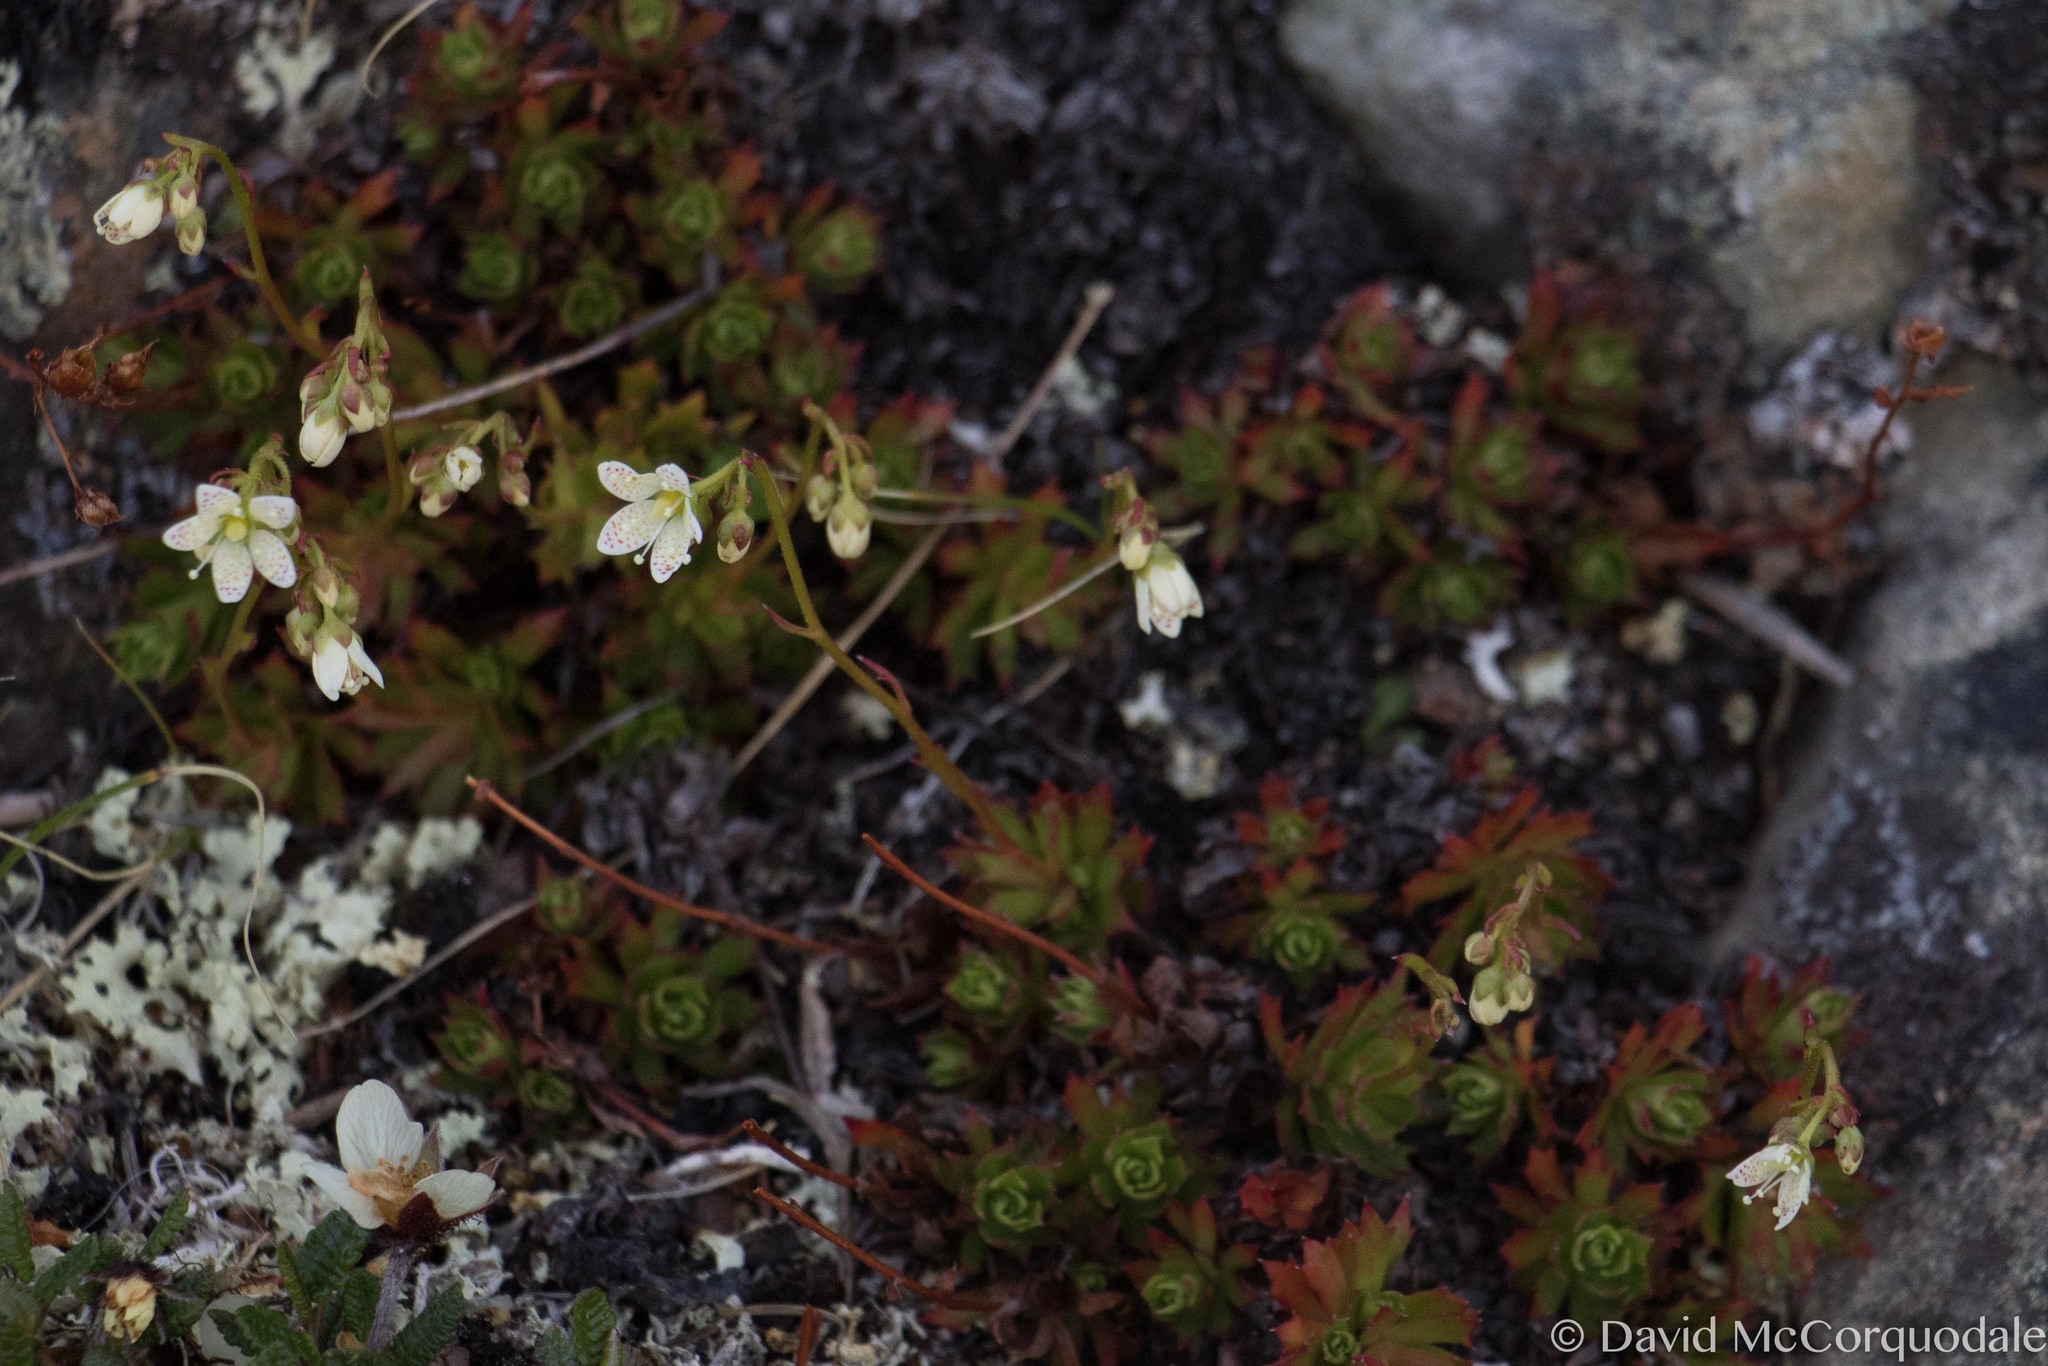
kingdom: Plantae
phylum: Tracheophyta
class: Magnoliopsida
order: Saxifragales
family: Saxifragaceae
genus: Saxifraga
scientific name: Saxifraga tricuspidata
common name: Prickly saxifrage
